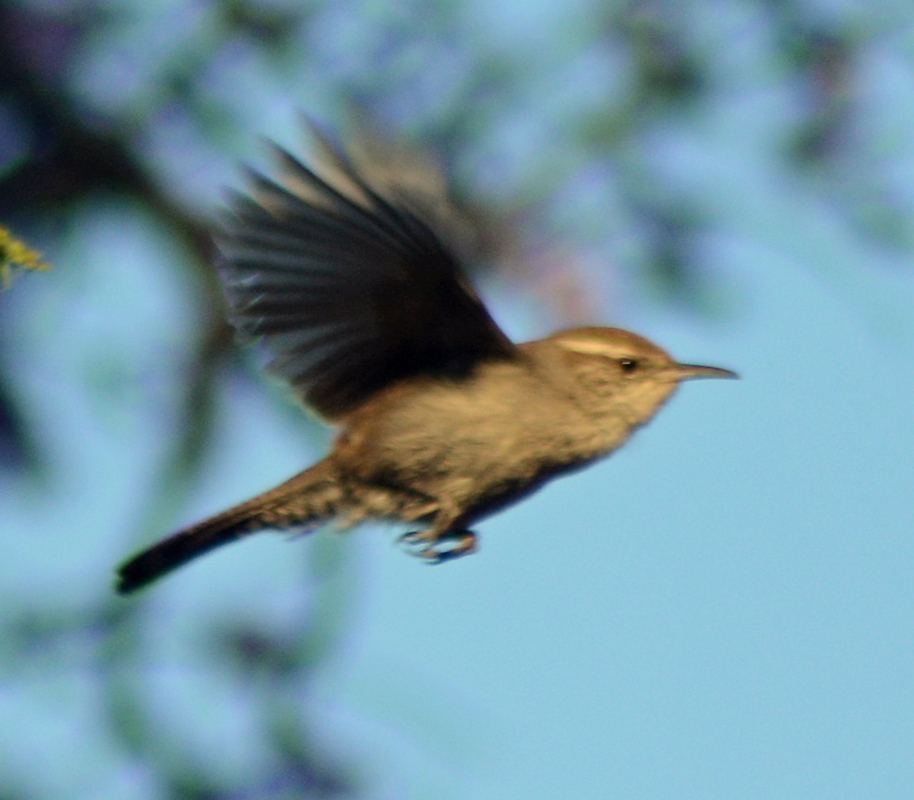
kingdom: Animalia
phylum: Chordata
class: Aves
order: Passeriformes
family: Troglodytidae
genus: Thryomanes
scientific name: Thryomanes bewickii
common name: Bewick's wren
